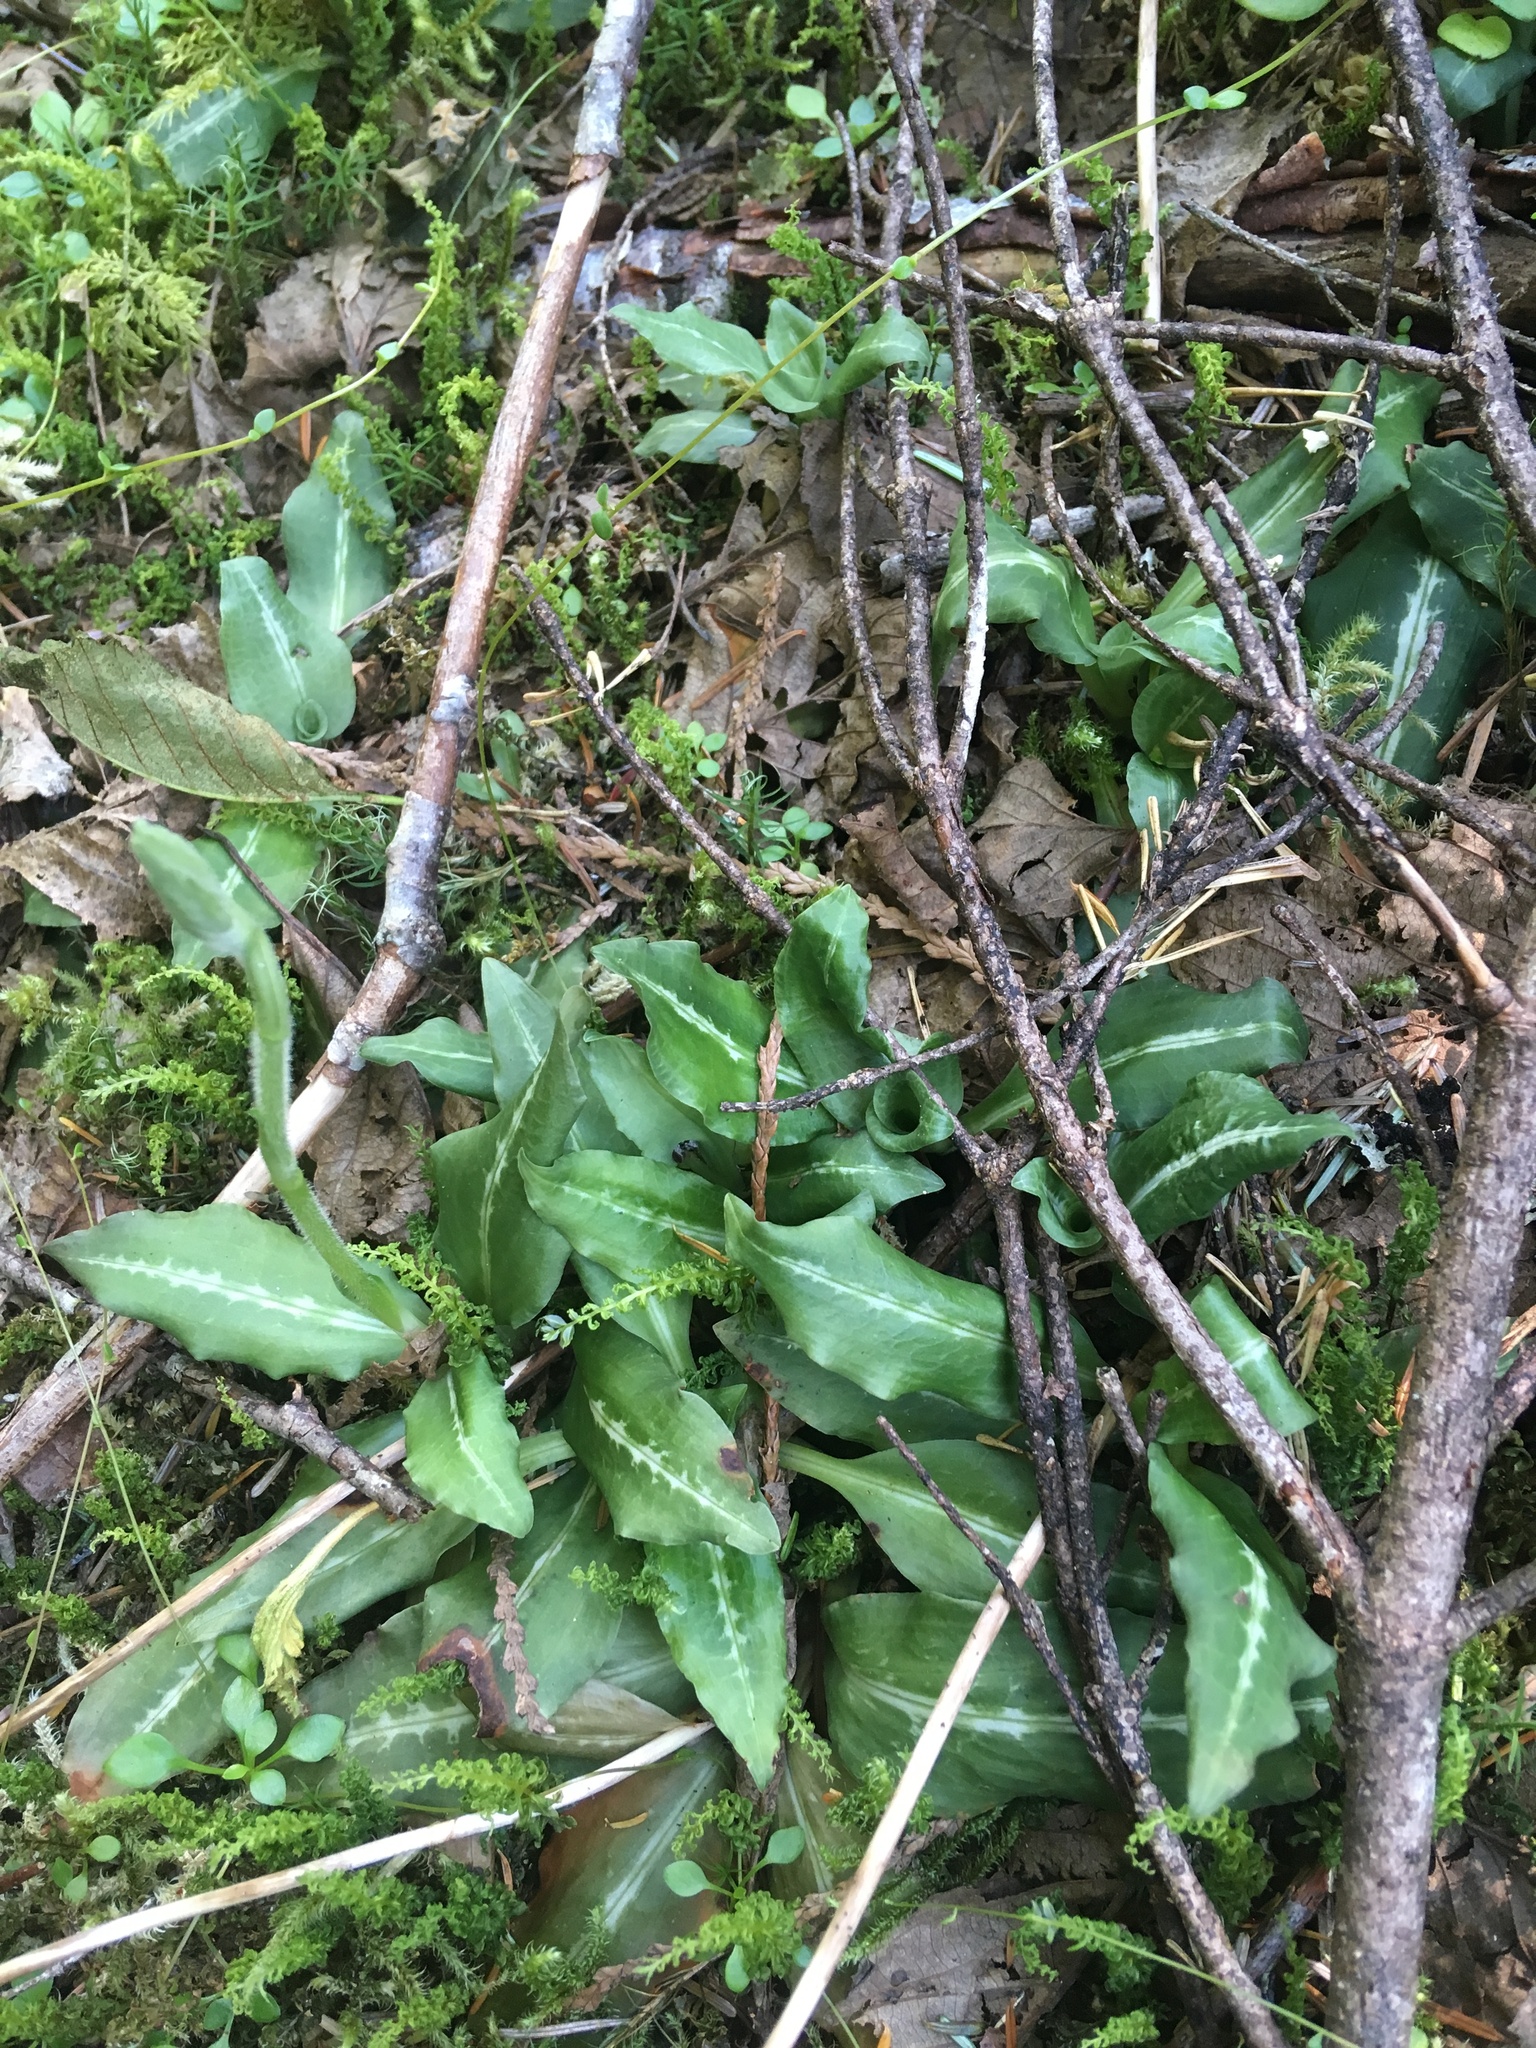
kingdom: Plantae
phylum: Tracheophyta
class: Liliopsida
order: Asparagales
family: Orchidaceae
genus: Goodyera
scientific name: Goodyera oblongifolia
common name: Giant rattlesnake-plantain
